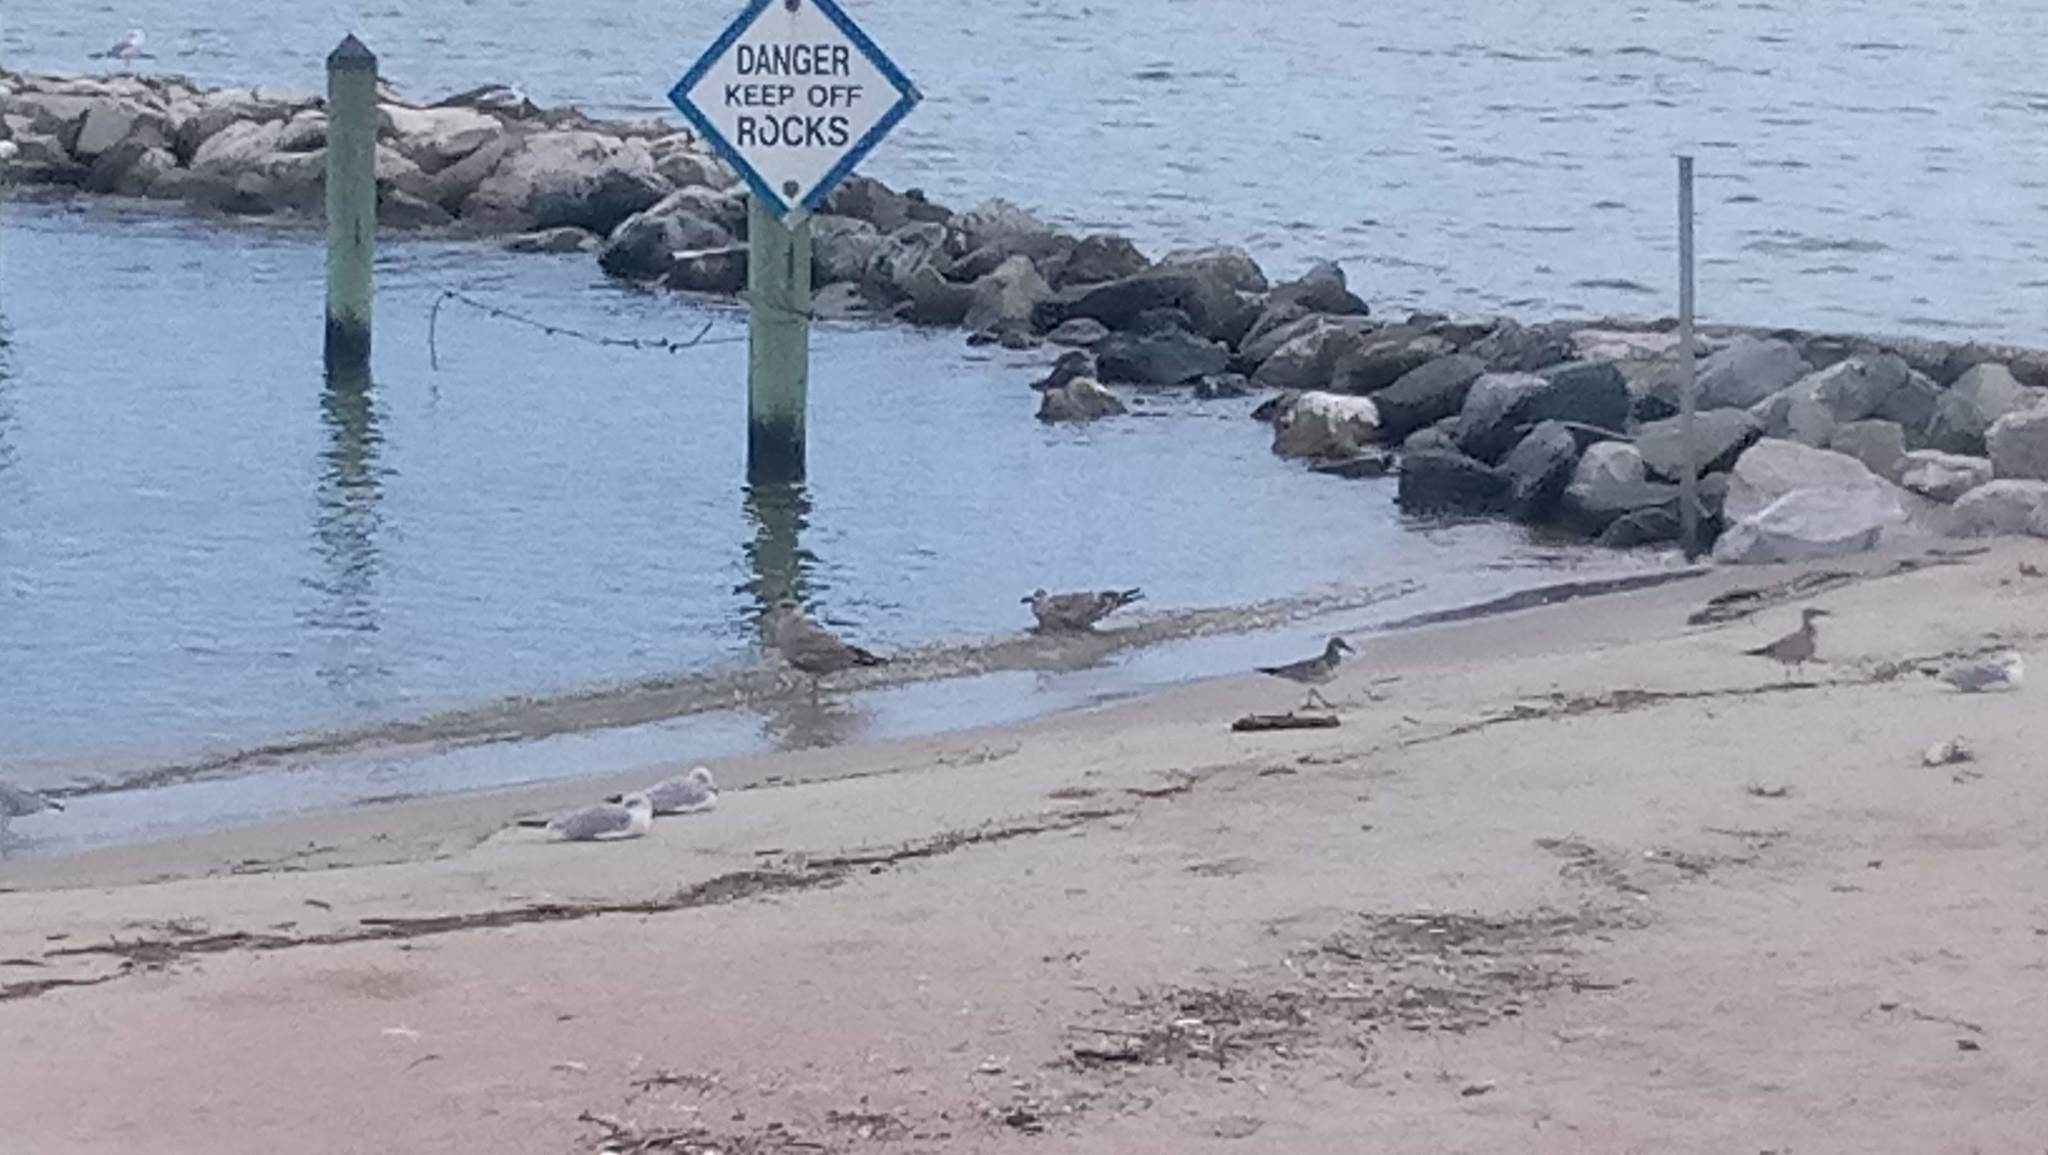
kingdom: Animalia
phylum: Chordata
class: Aves
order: Charadriiformes
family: Laridae
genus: Larus
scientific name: Larus argentatus
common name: Herring gull
